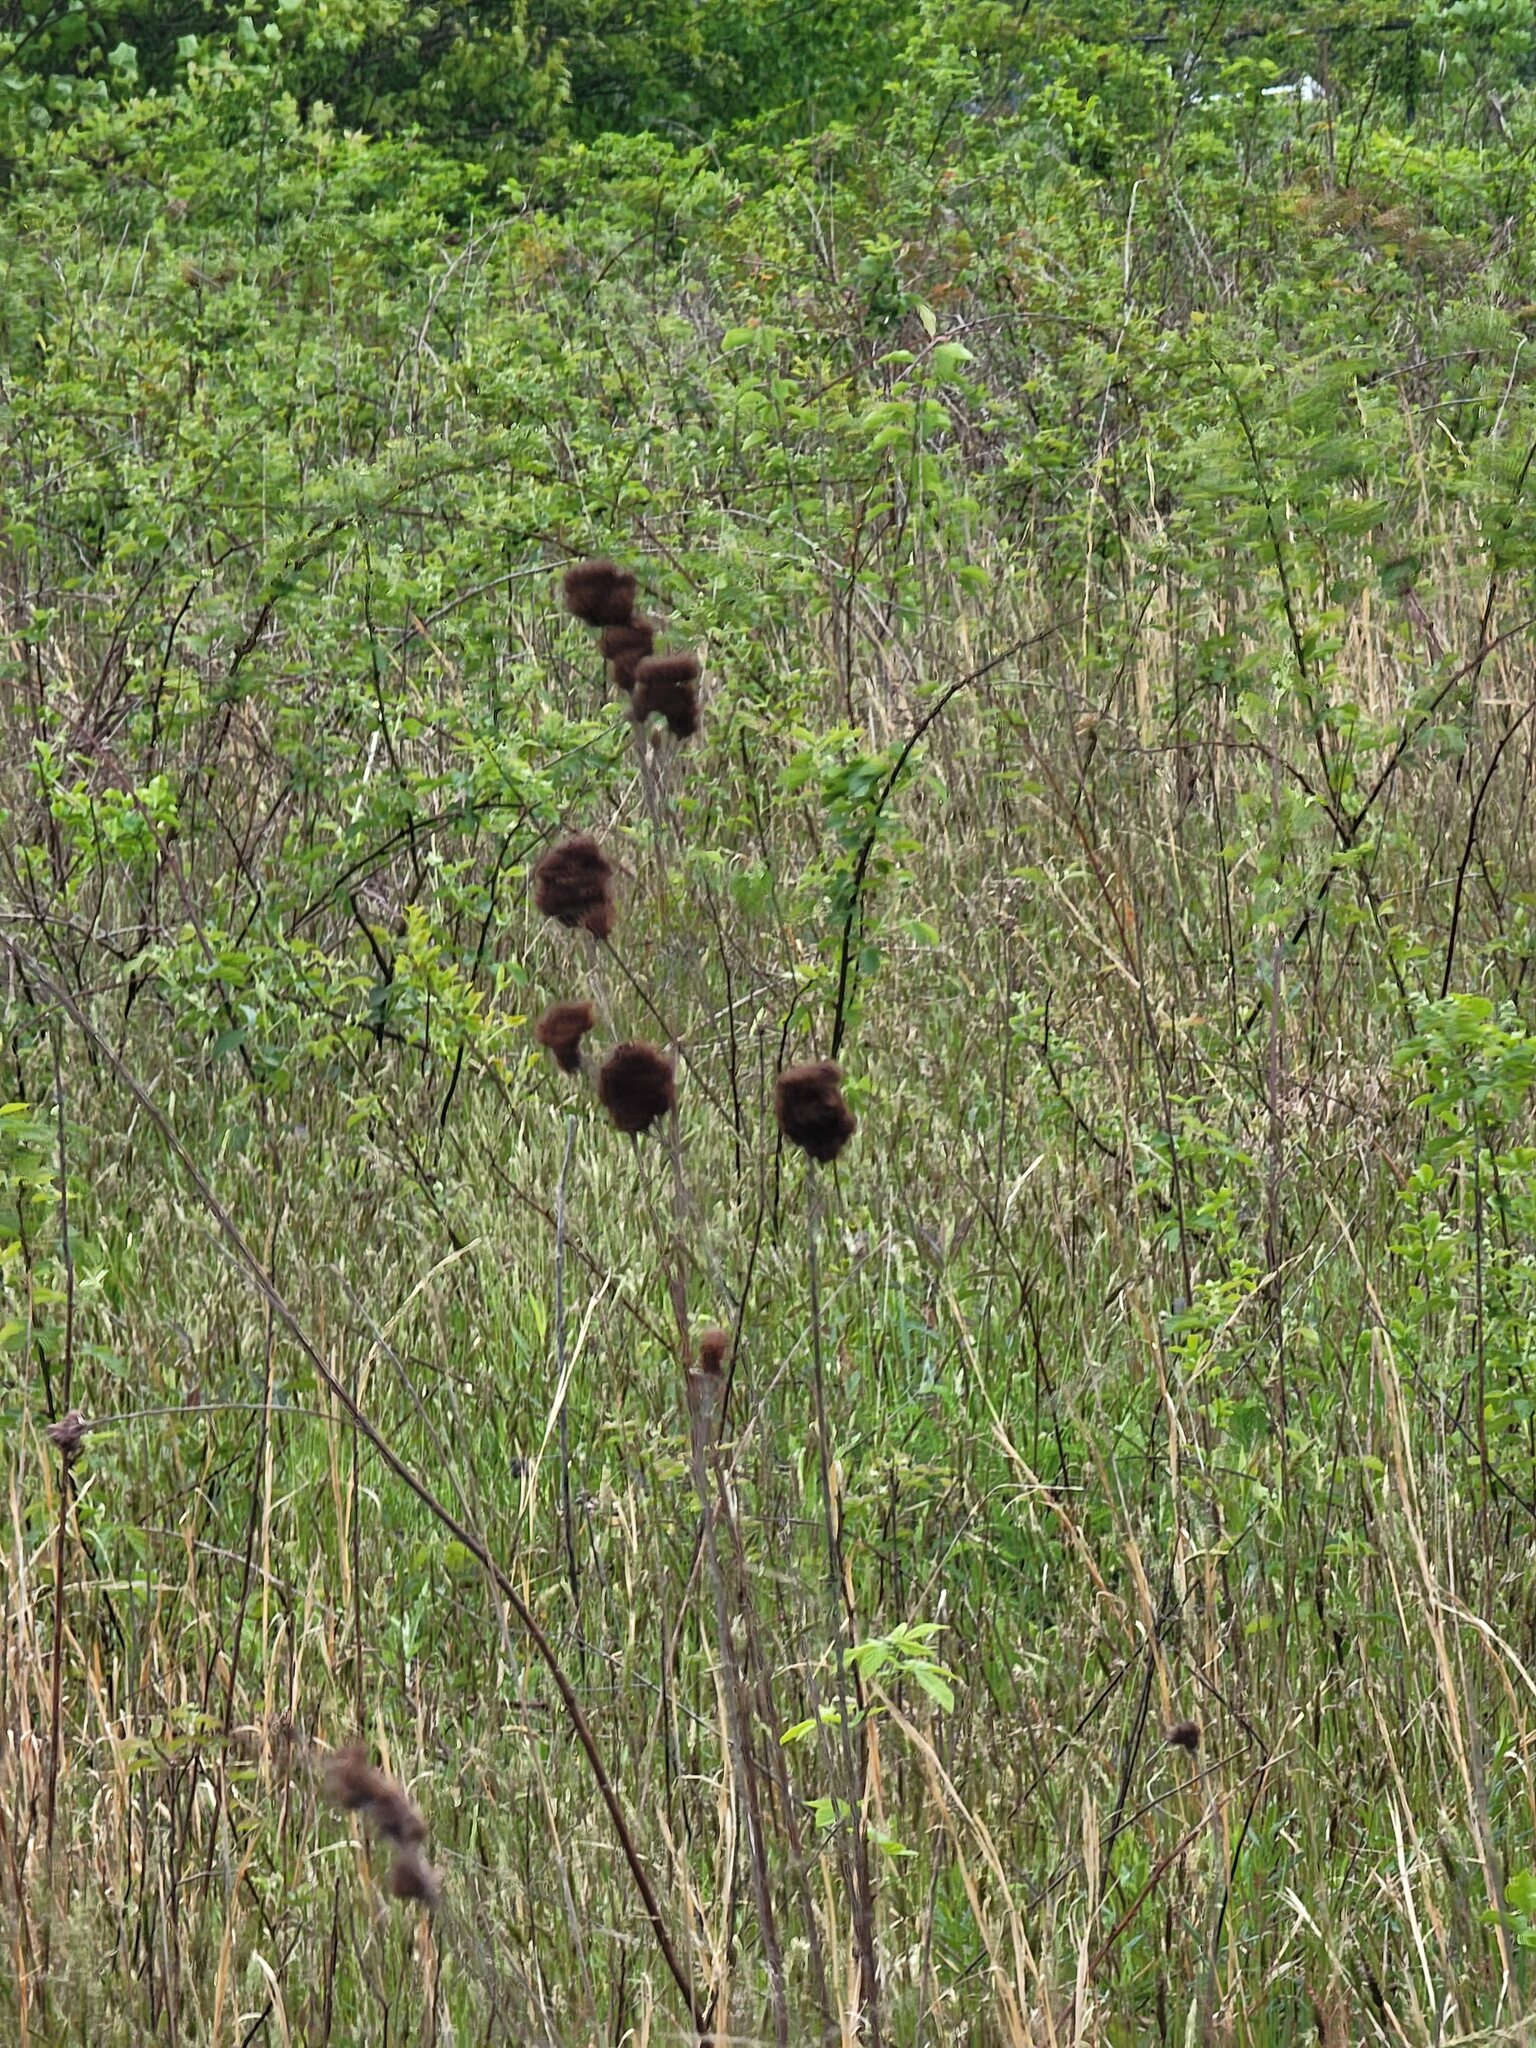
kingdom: Plantae
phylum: Tracheophyta
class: Magnoliopsida
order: Fabales
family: Fabaceae
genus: Lespedeza
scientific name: Lespedeza capitata
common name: Dusty clover
